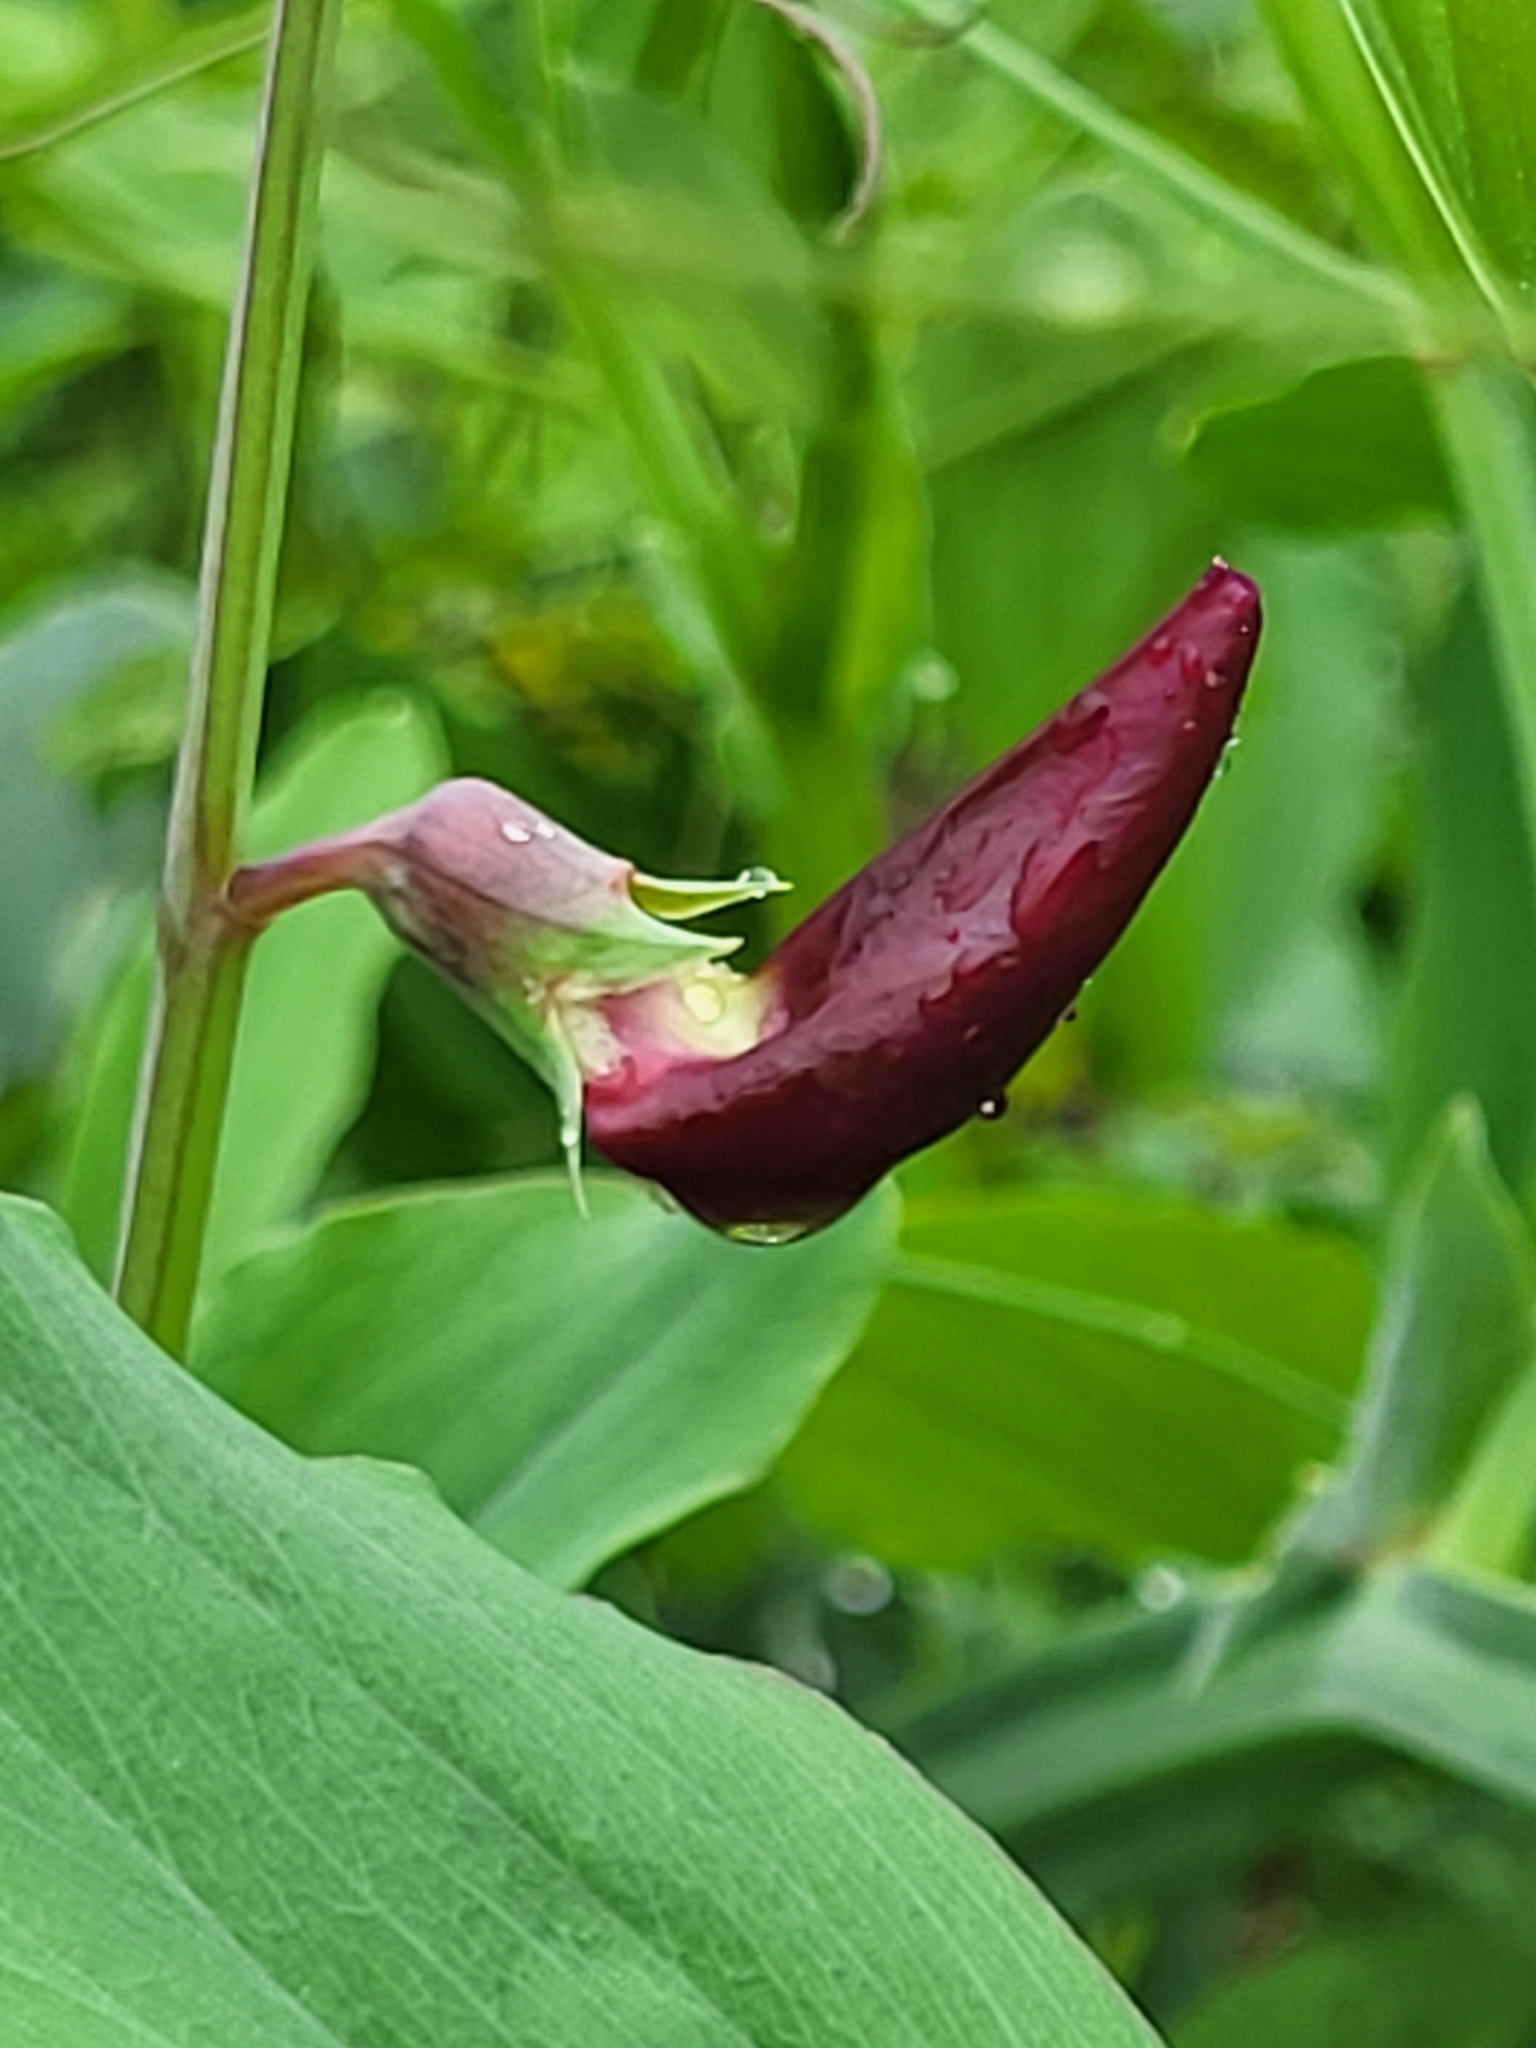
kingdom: Plantae
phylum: Tracheophyta
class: Magnoliopsida
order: Fabales
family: Fabaceae
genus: Lathyrus
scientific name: Lathyrus tingitanus
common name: Tangier pea
